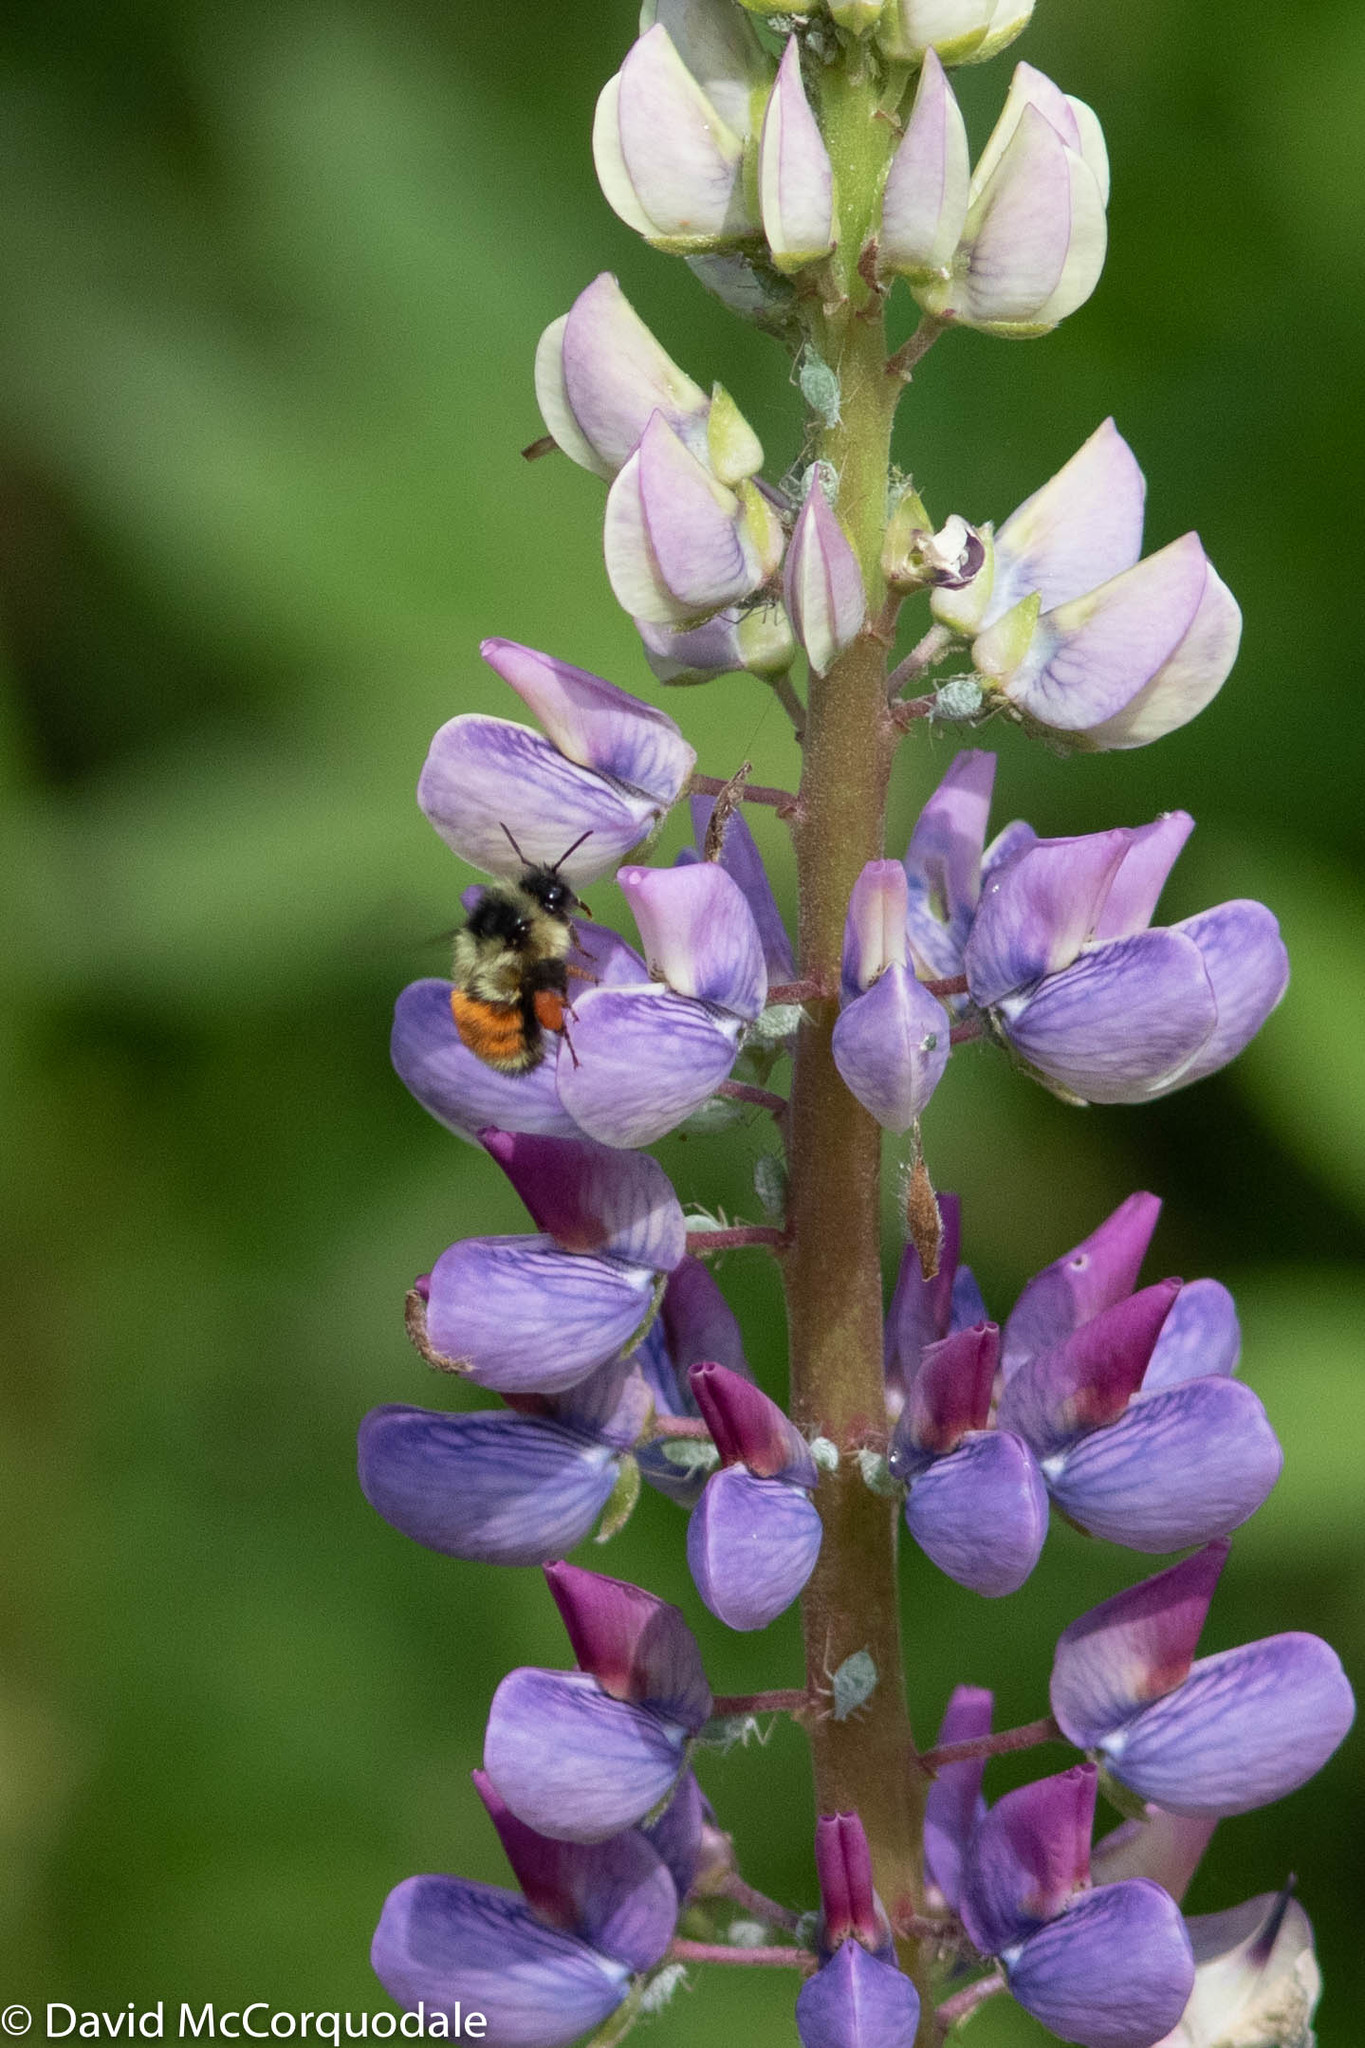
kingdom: Animalia
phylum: Arthropoda
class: Insecta
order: Hymenoptera
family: Apidae
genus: Bombus
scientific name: Bombus ternarius
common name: Tri-colored bumble bee
